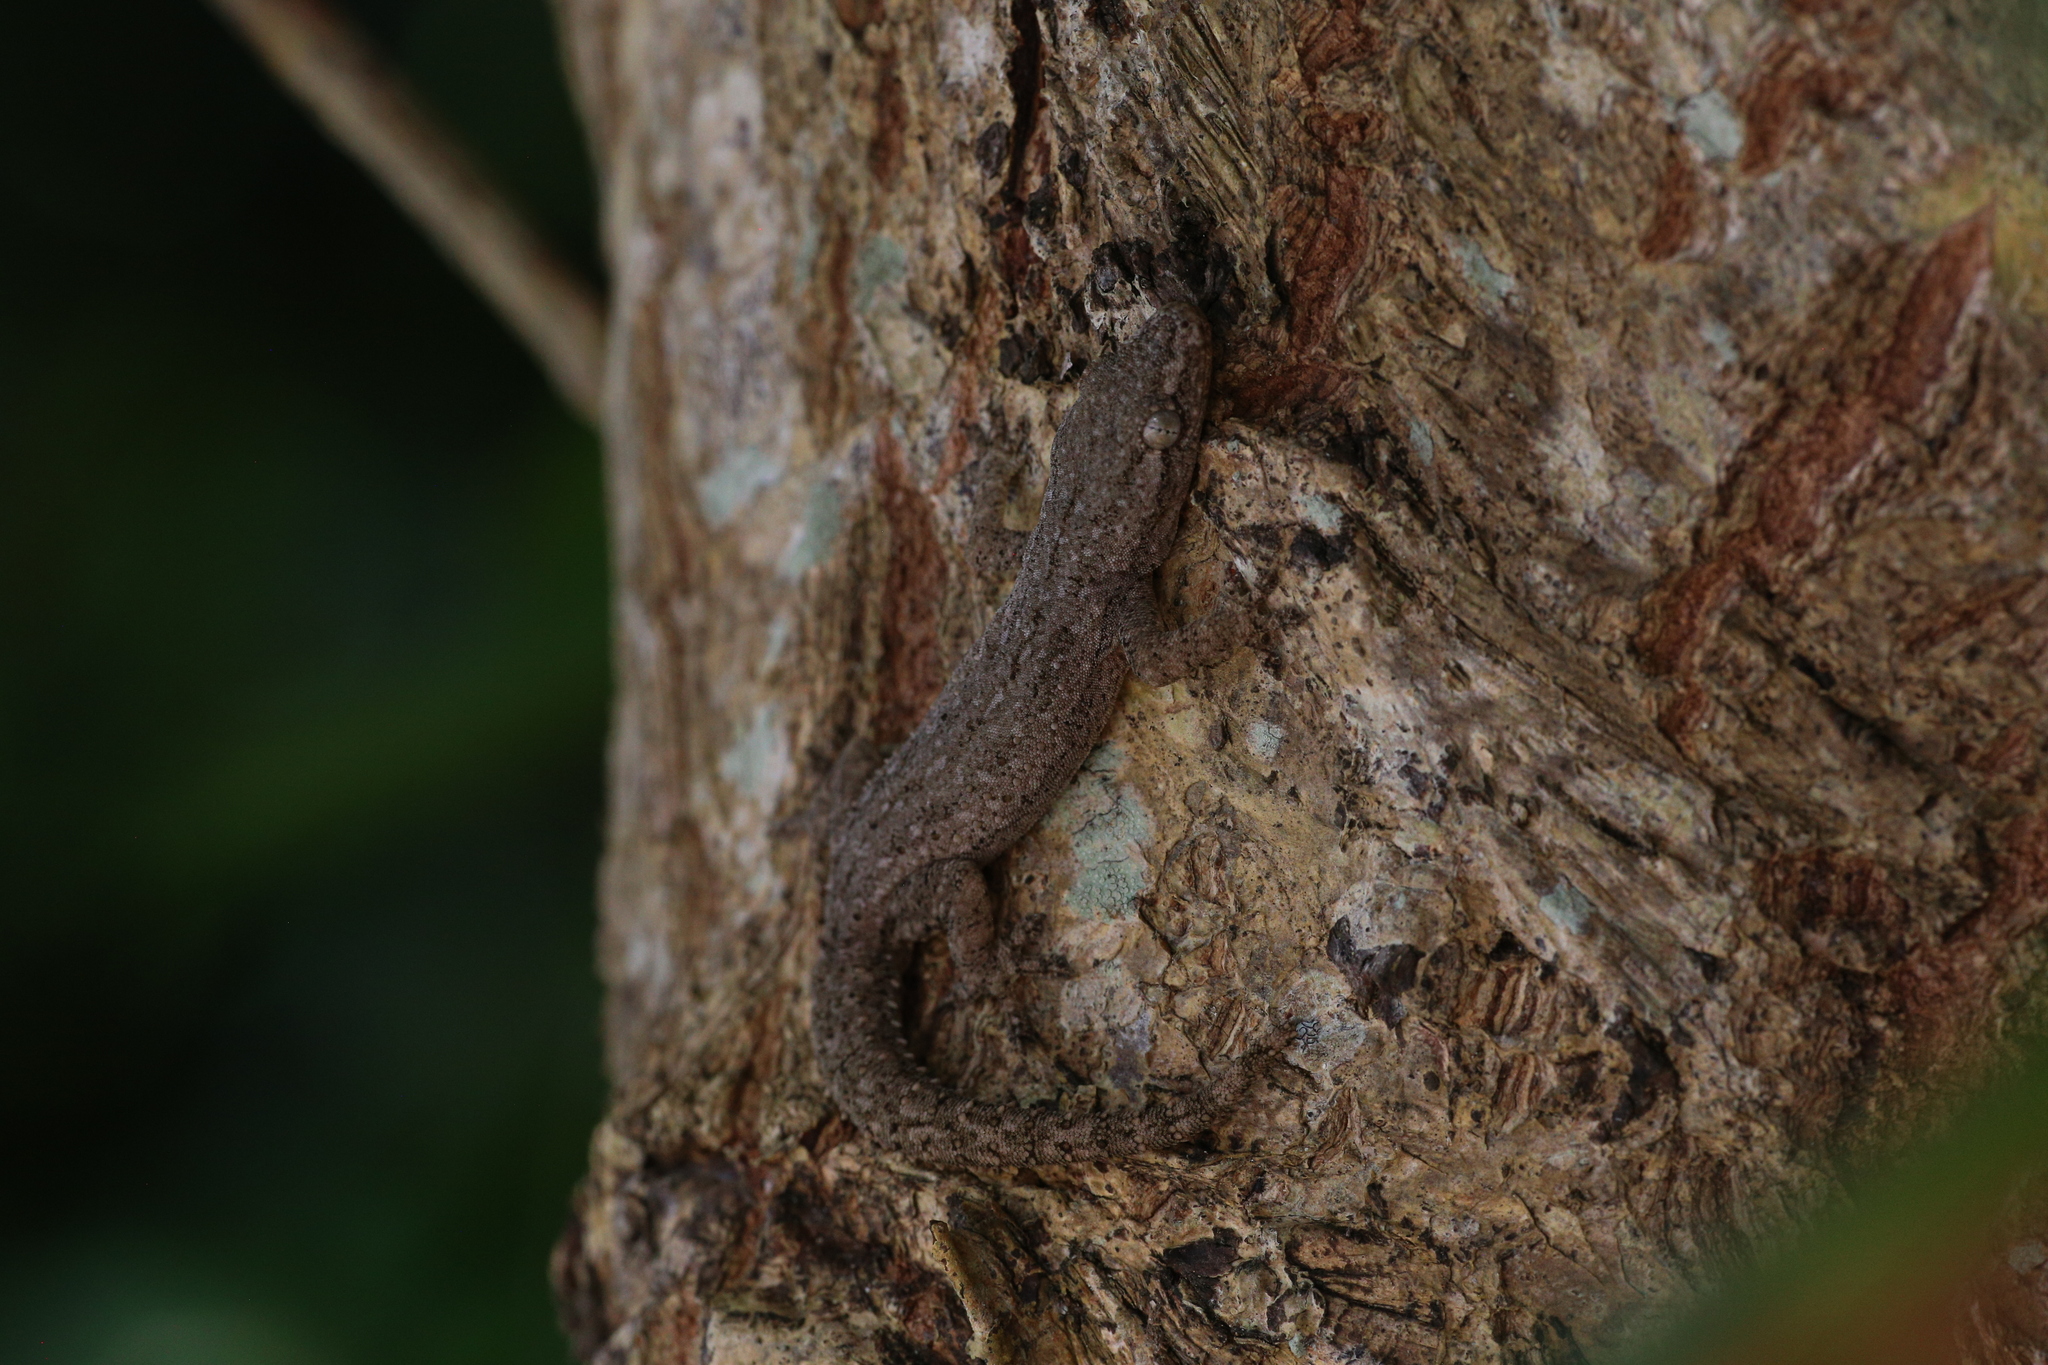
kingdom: Animalia
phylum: Chordata
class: Squamata
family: Gekkonidae
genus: Hemidactylus
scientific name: Hemidactylus frenatus
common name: Common house gecko
